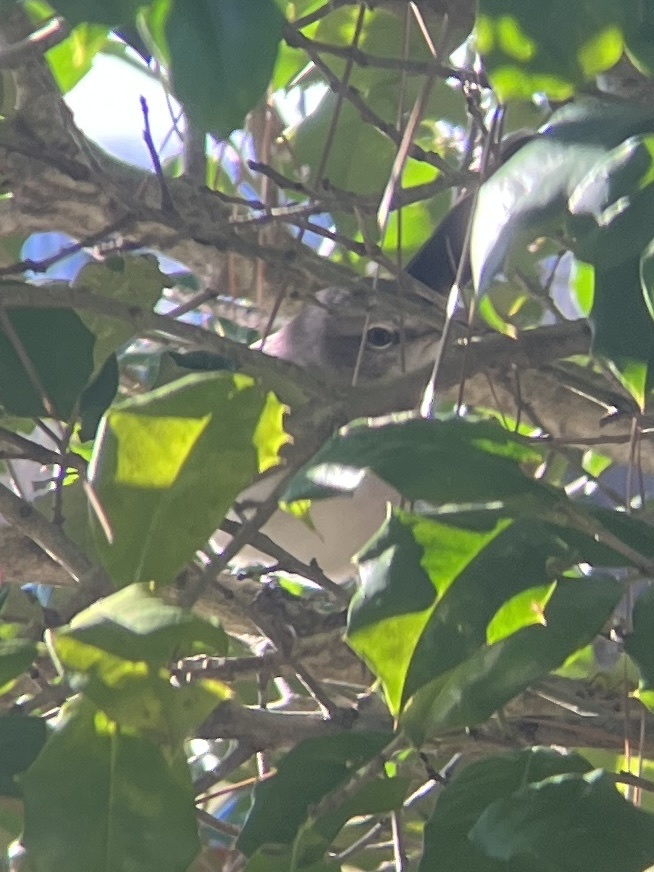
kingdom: Animalia
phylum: Chordata
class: Aves
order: Passeriformes
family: Mimidae
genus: Mimus
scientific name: Mimus polyglottos
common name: Northern mockingbird
